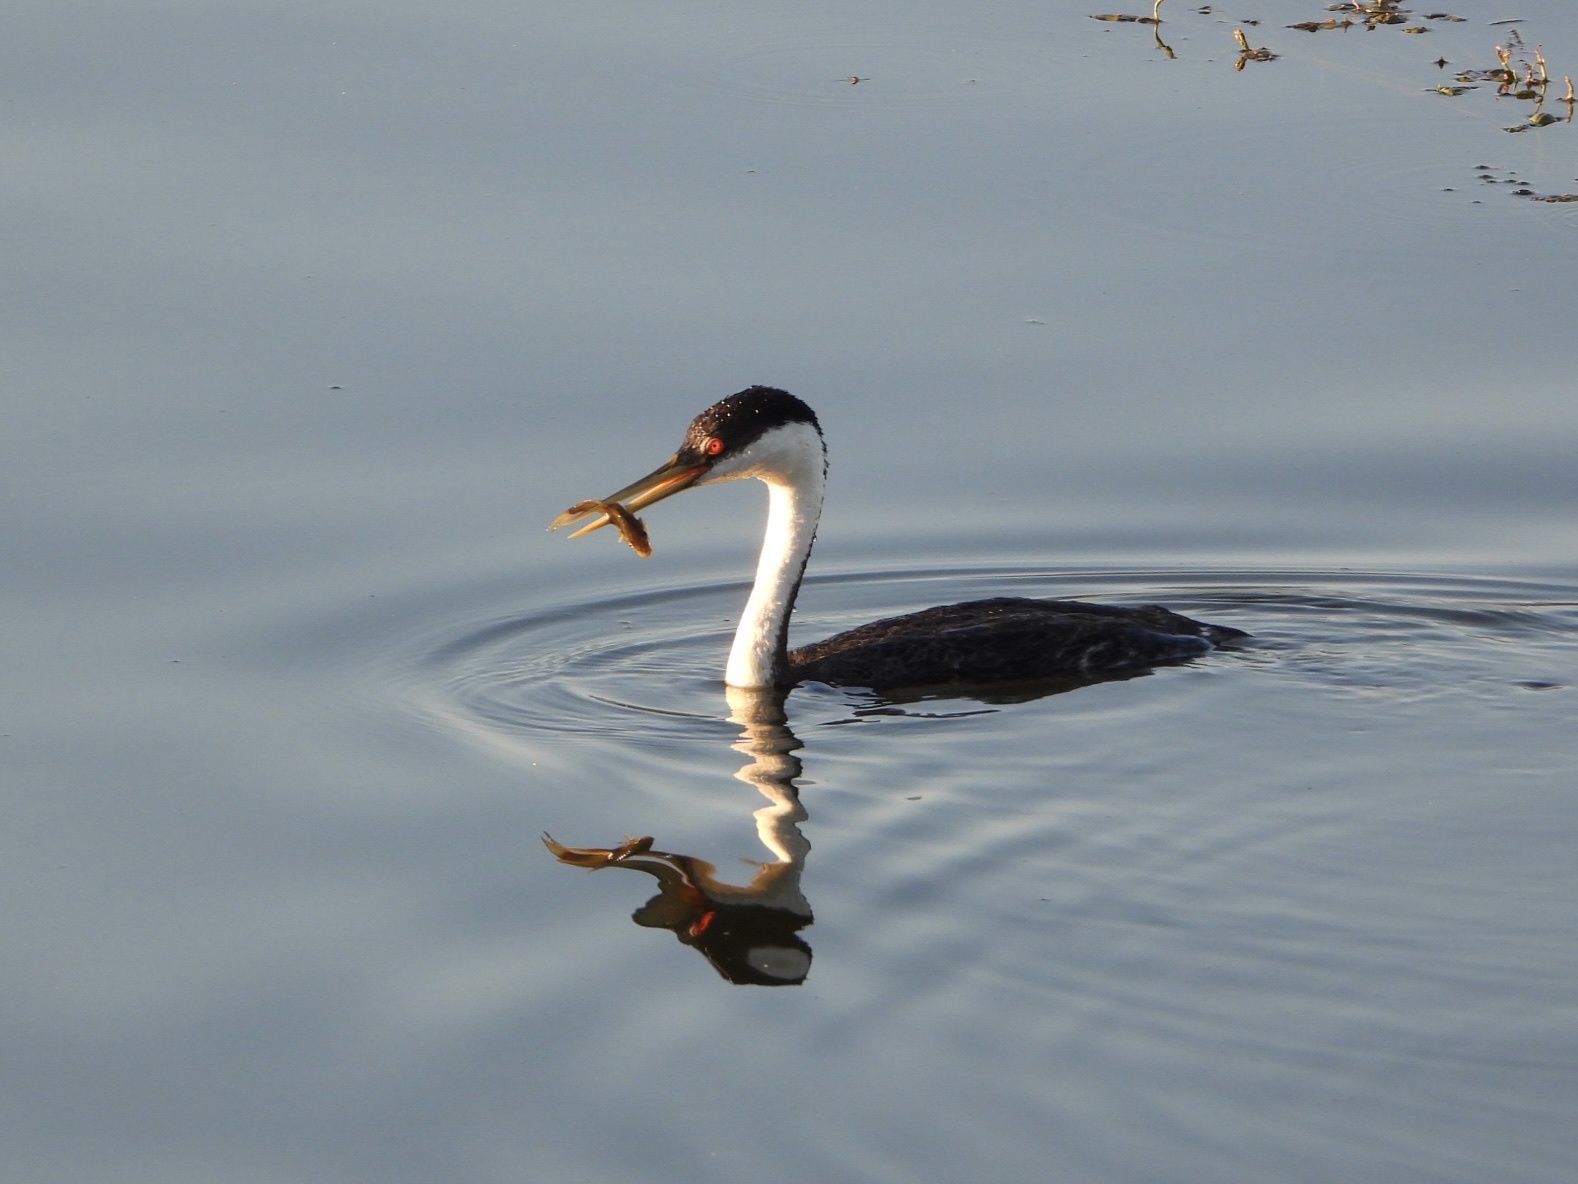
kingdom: Animalia
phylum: Chordata
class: Aves
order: Podicipediformes
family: Podicipedidae
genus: Aechmophorus
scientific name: Aechmophorus occidentalis
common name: Western grebe
